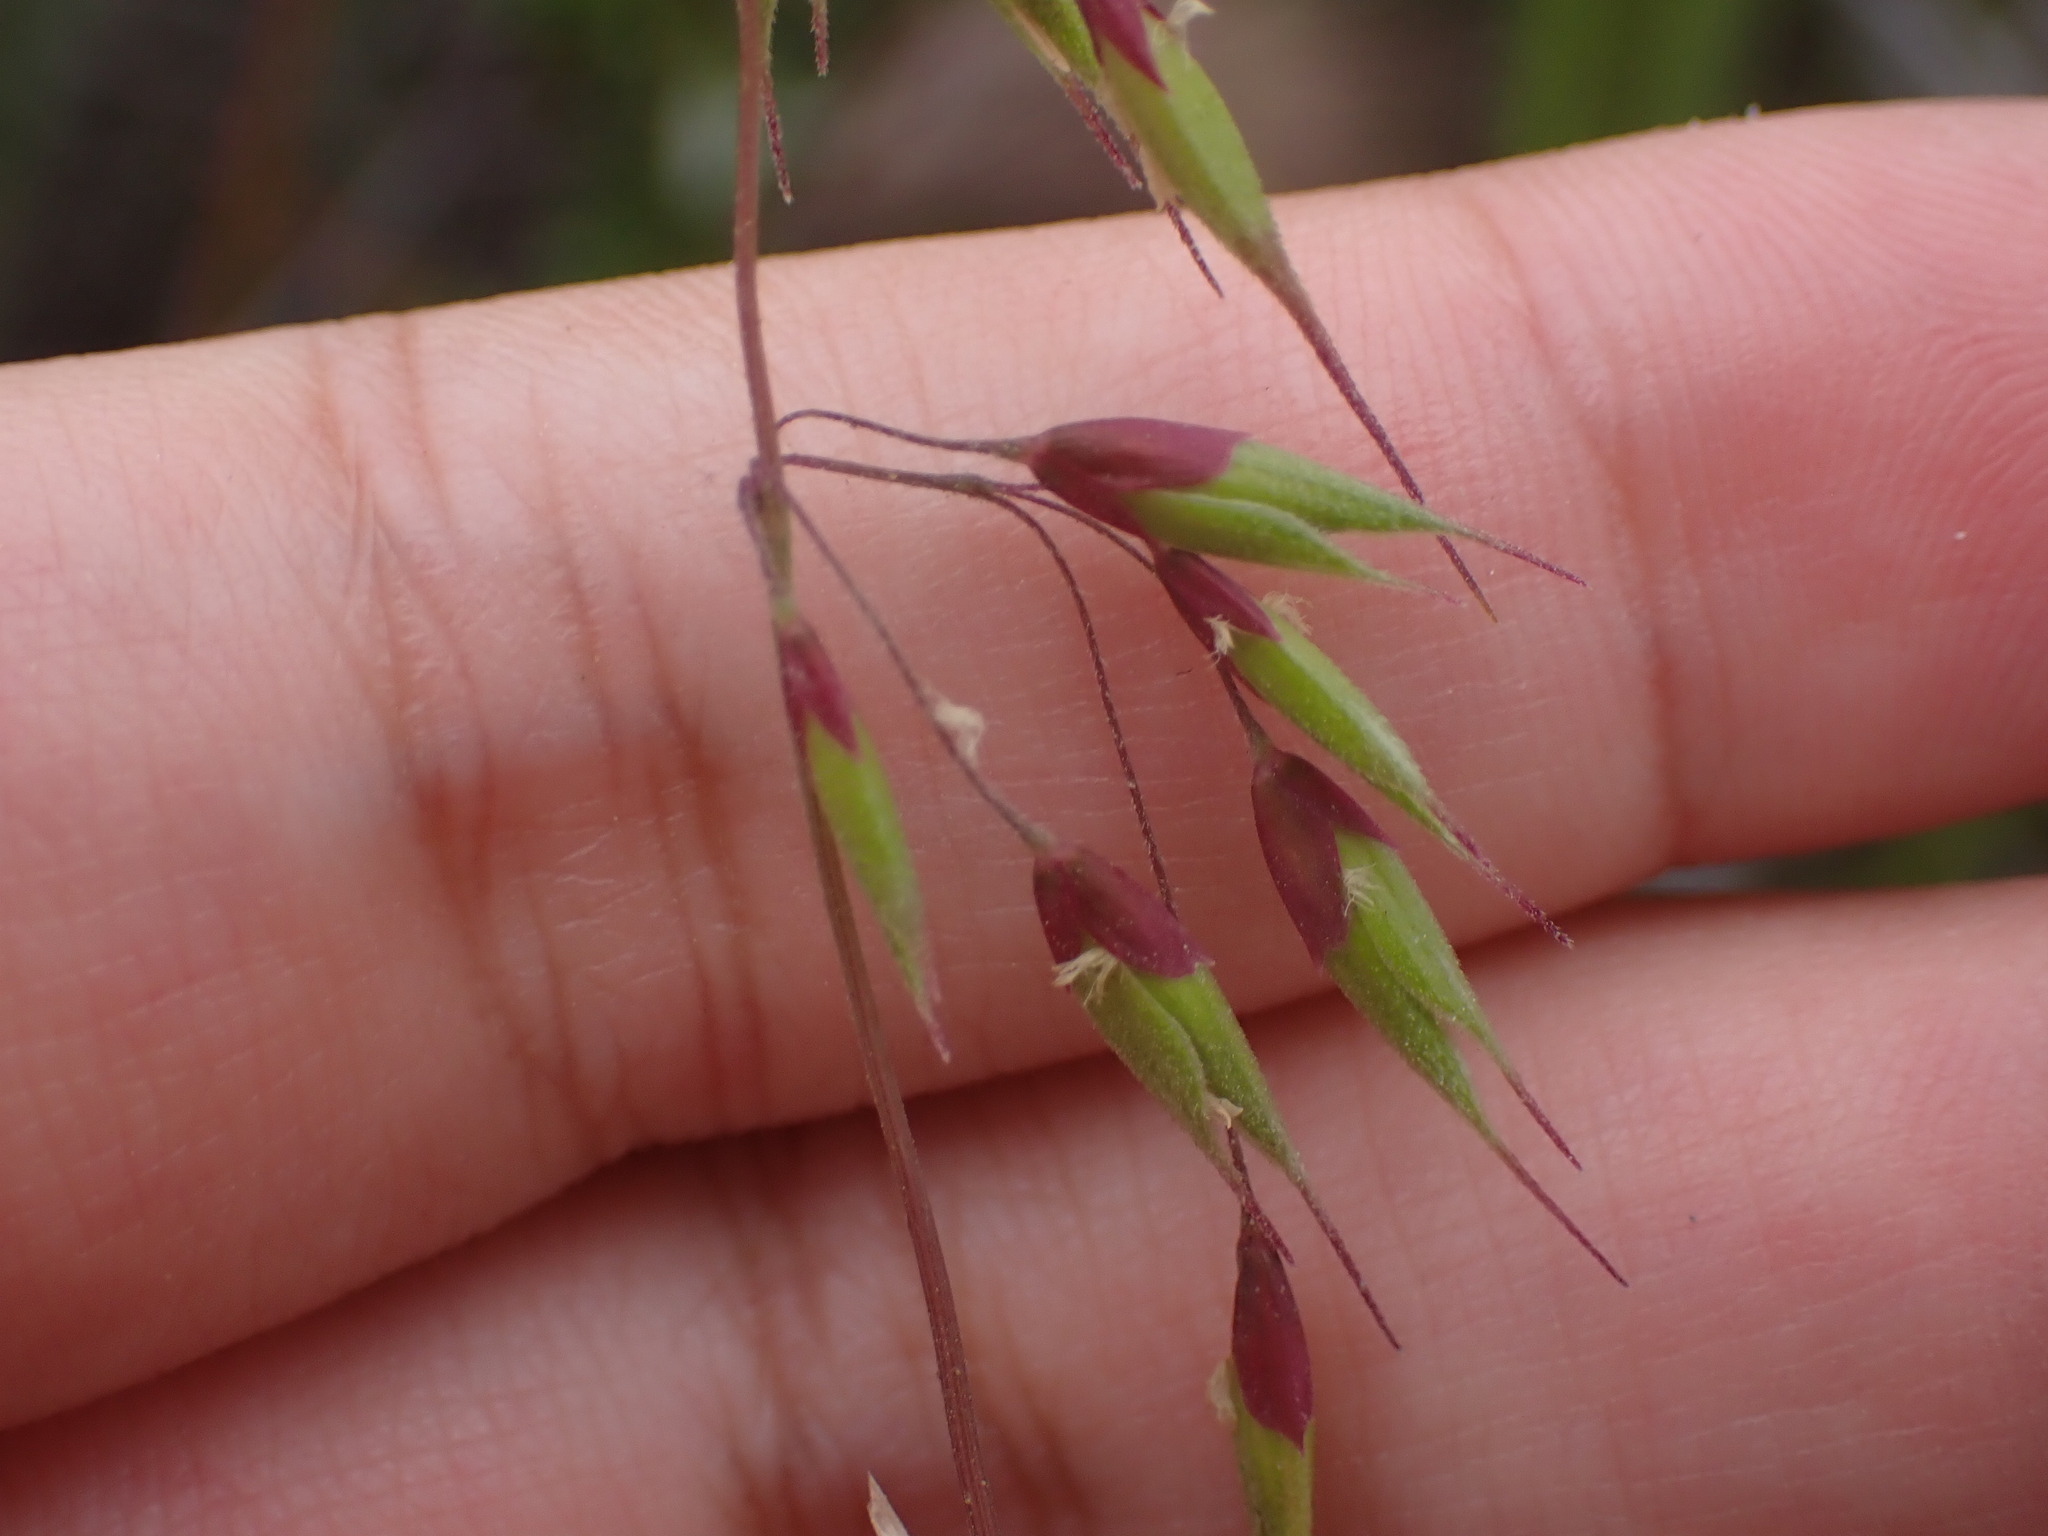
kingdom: Plantae
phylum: Tracheophyta
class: Liliopsida
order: Poales
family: Poaceae
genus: Ehrharta
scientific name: Ehrharta longiflora
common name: Longflowered veldtgrass
